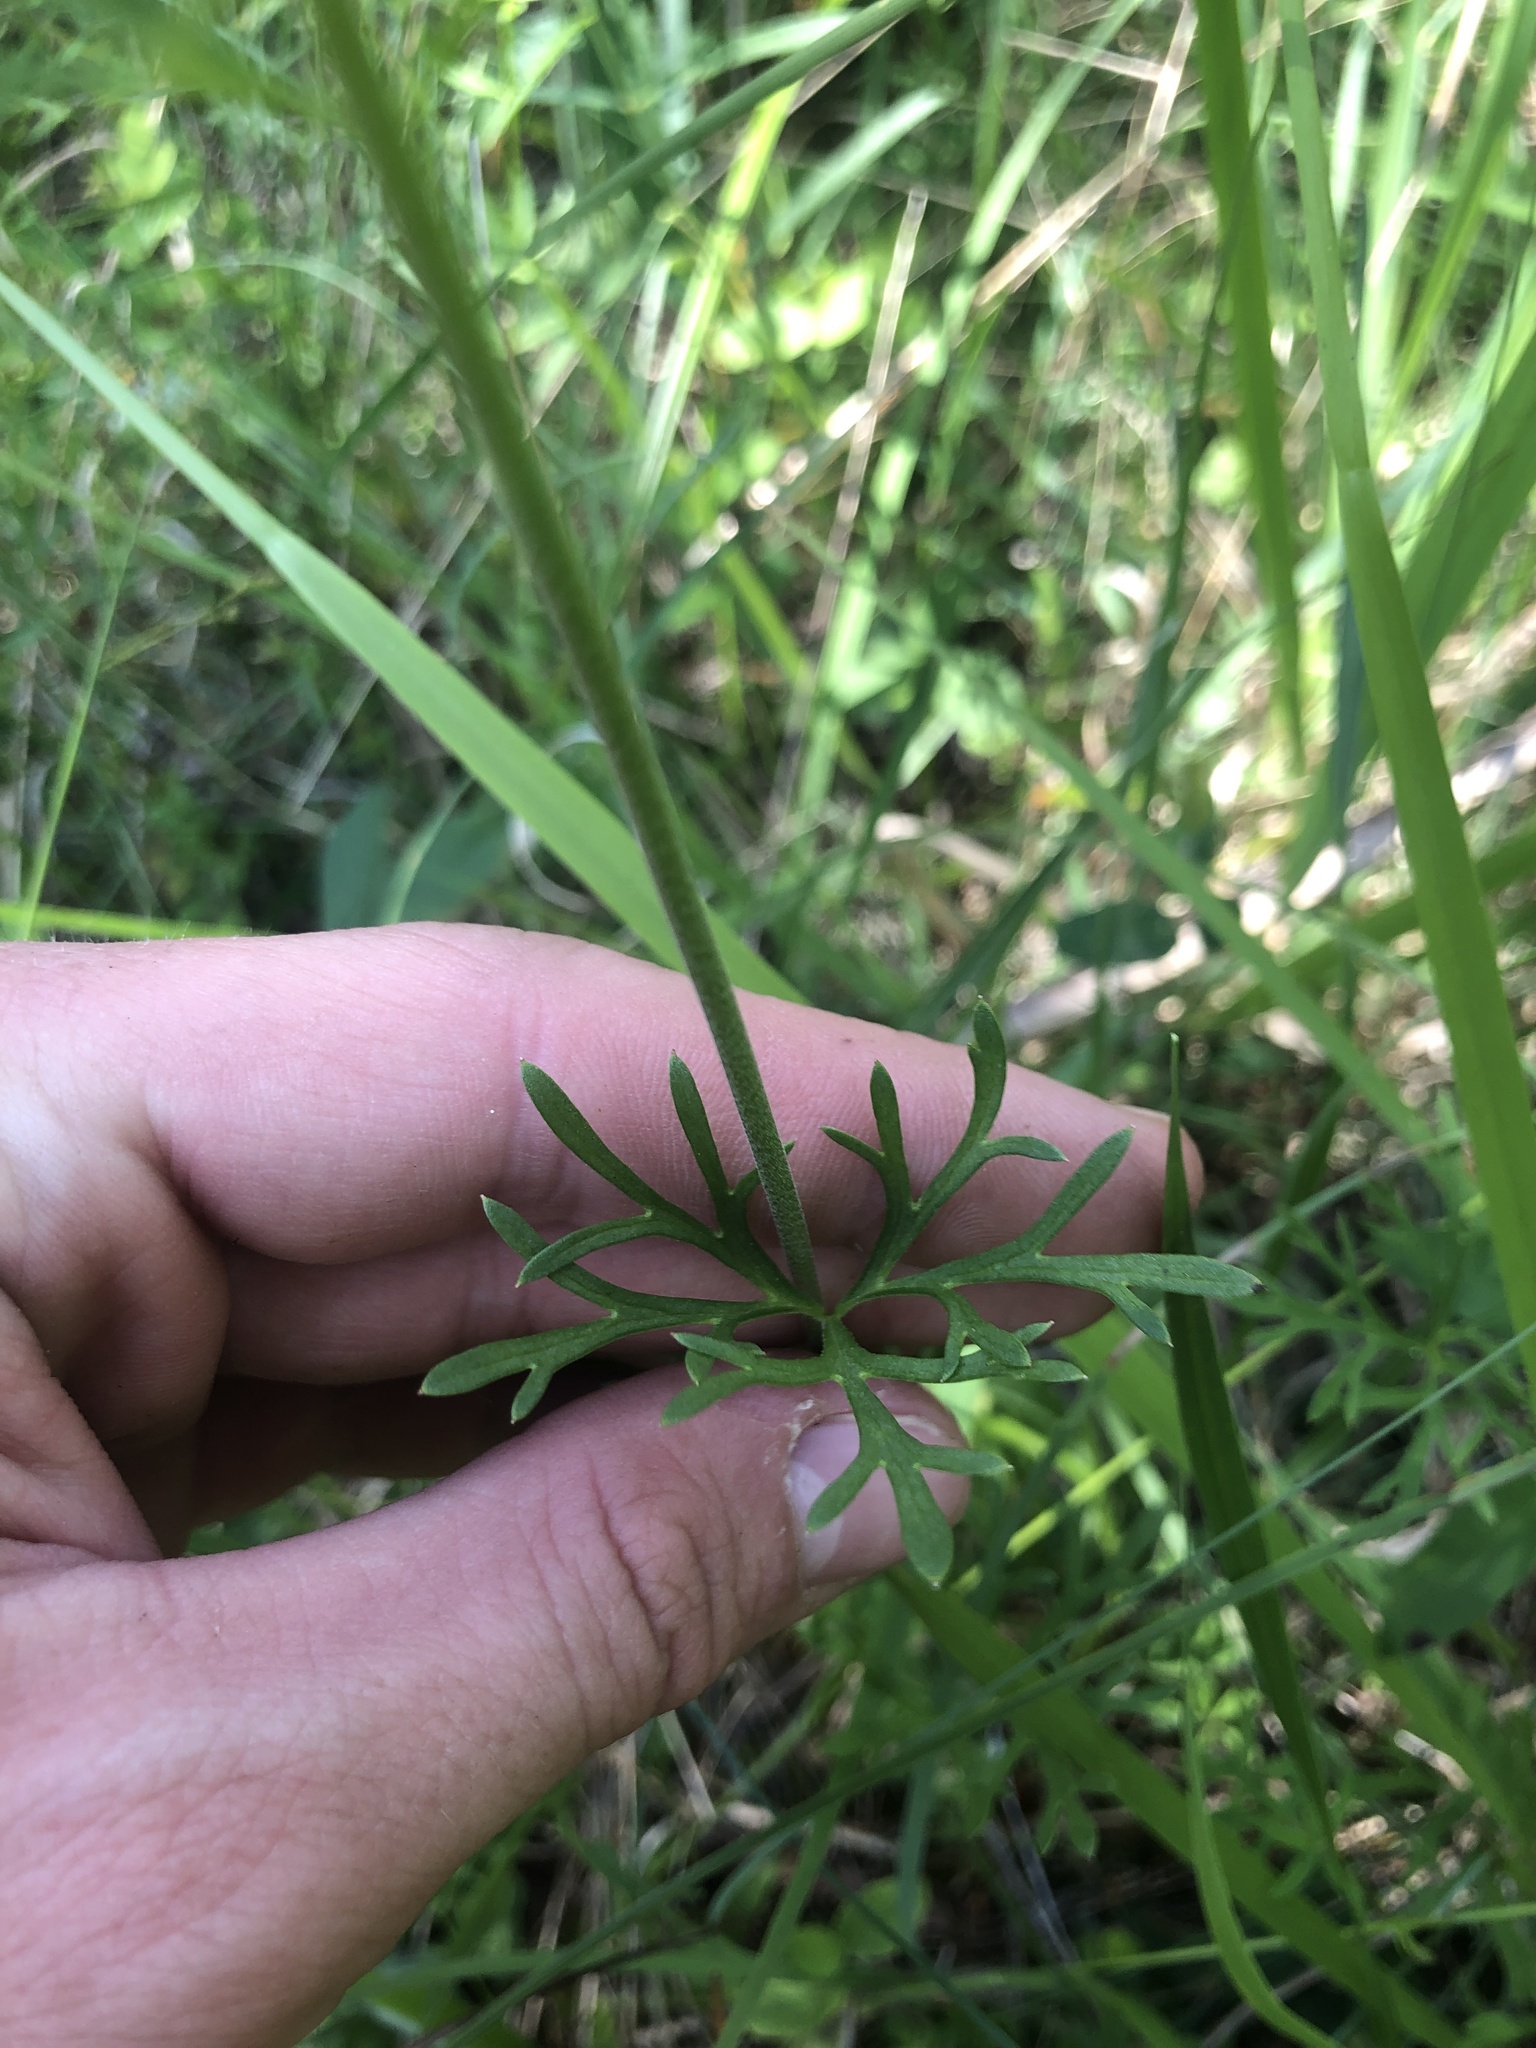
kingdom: Plantae
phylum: Tracheophyta
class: Magnoliopsida
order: Ranunculales
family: Ranunculaceae
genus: Delphinium
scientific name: Delphinium carolinianum
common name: Carolina larkspur
